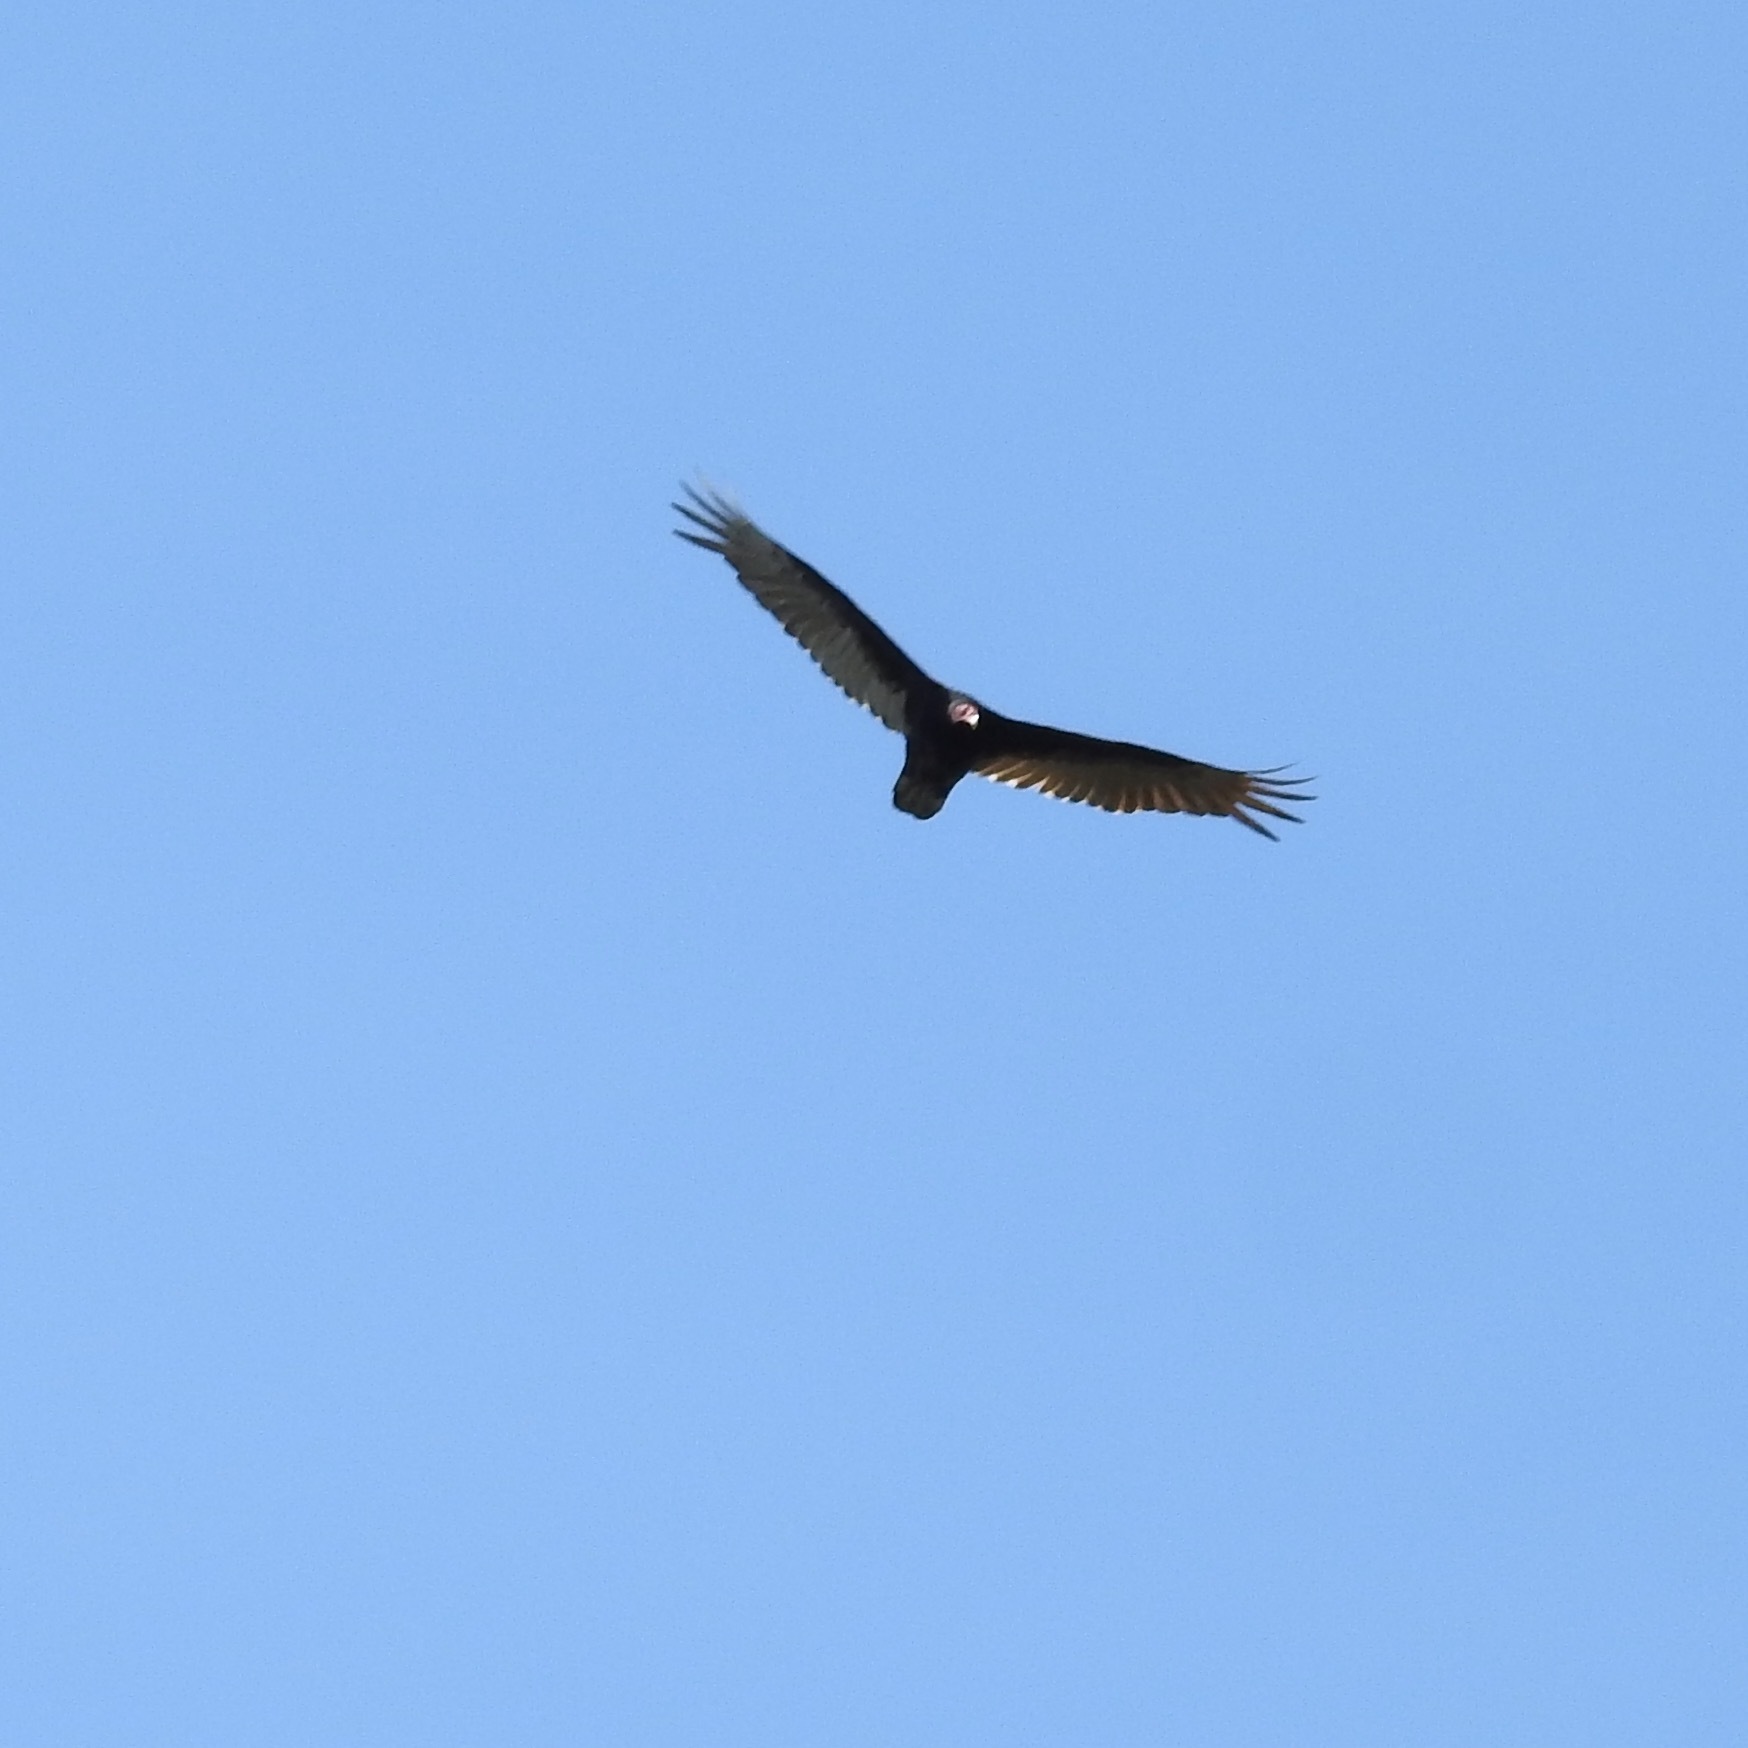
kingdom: Animalia
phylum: Chordata
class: Aves
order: Accipitriformes
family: Cathartidae
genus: Cathartes
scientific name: Cathartes aura
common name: Turkey vulture
